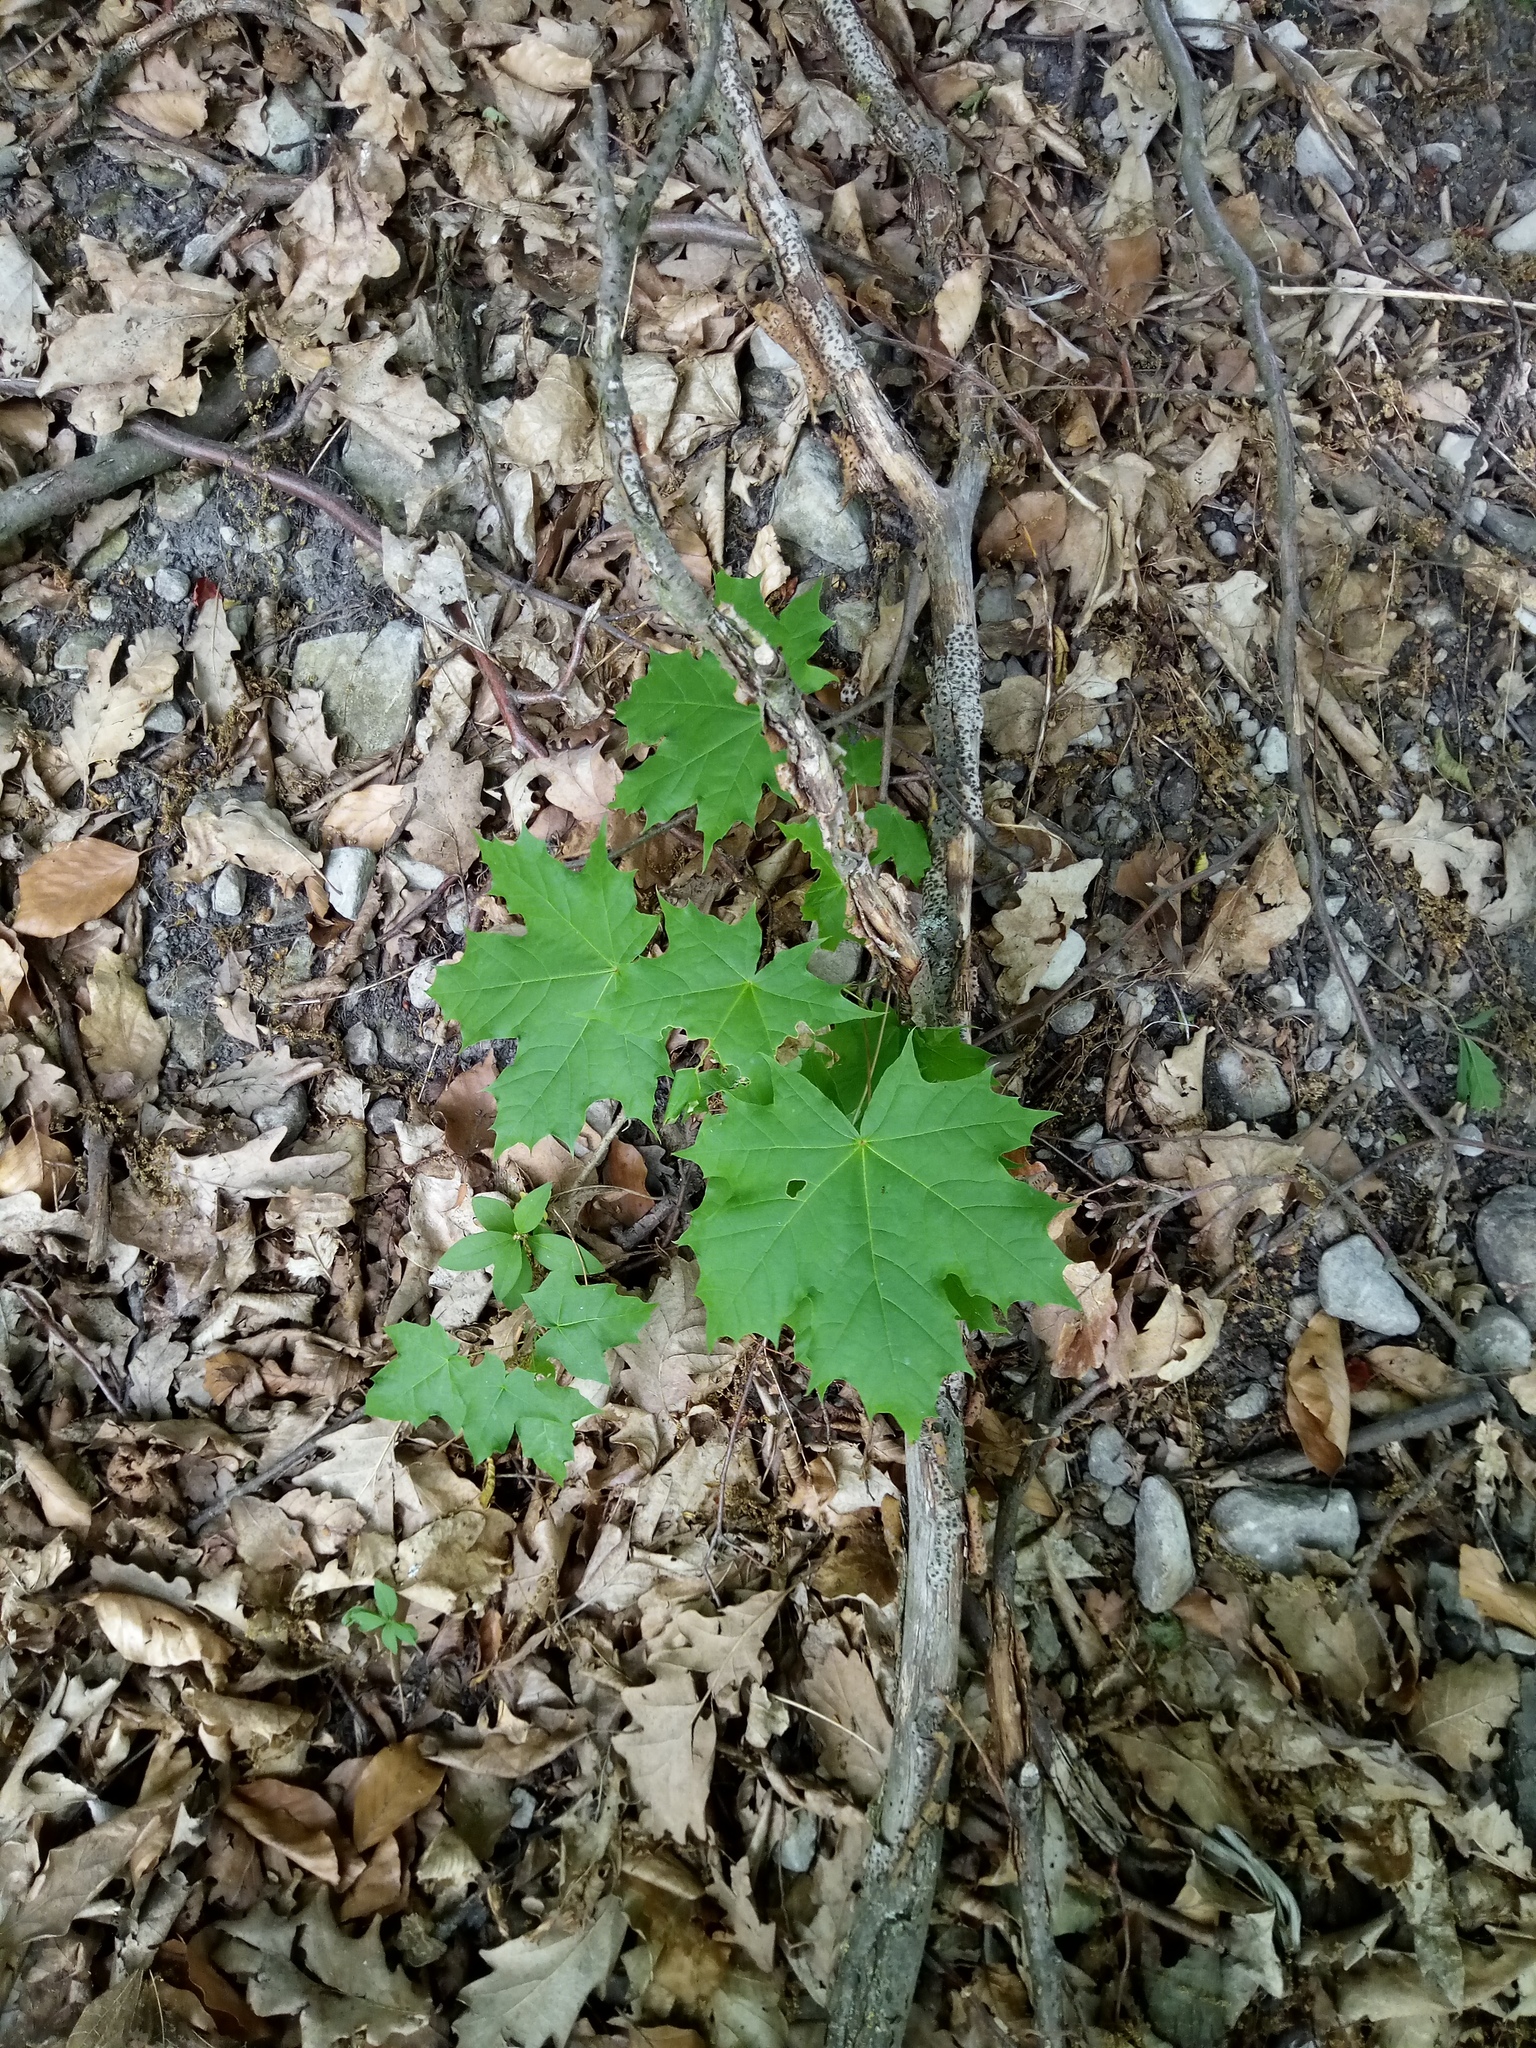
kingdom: Plantae
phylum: Tracheophyta
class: Magnoliopsida
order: Sapindales
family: Sapindaceae
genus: Acer
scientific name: Acer platanoides
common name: Norway maple
